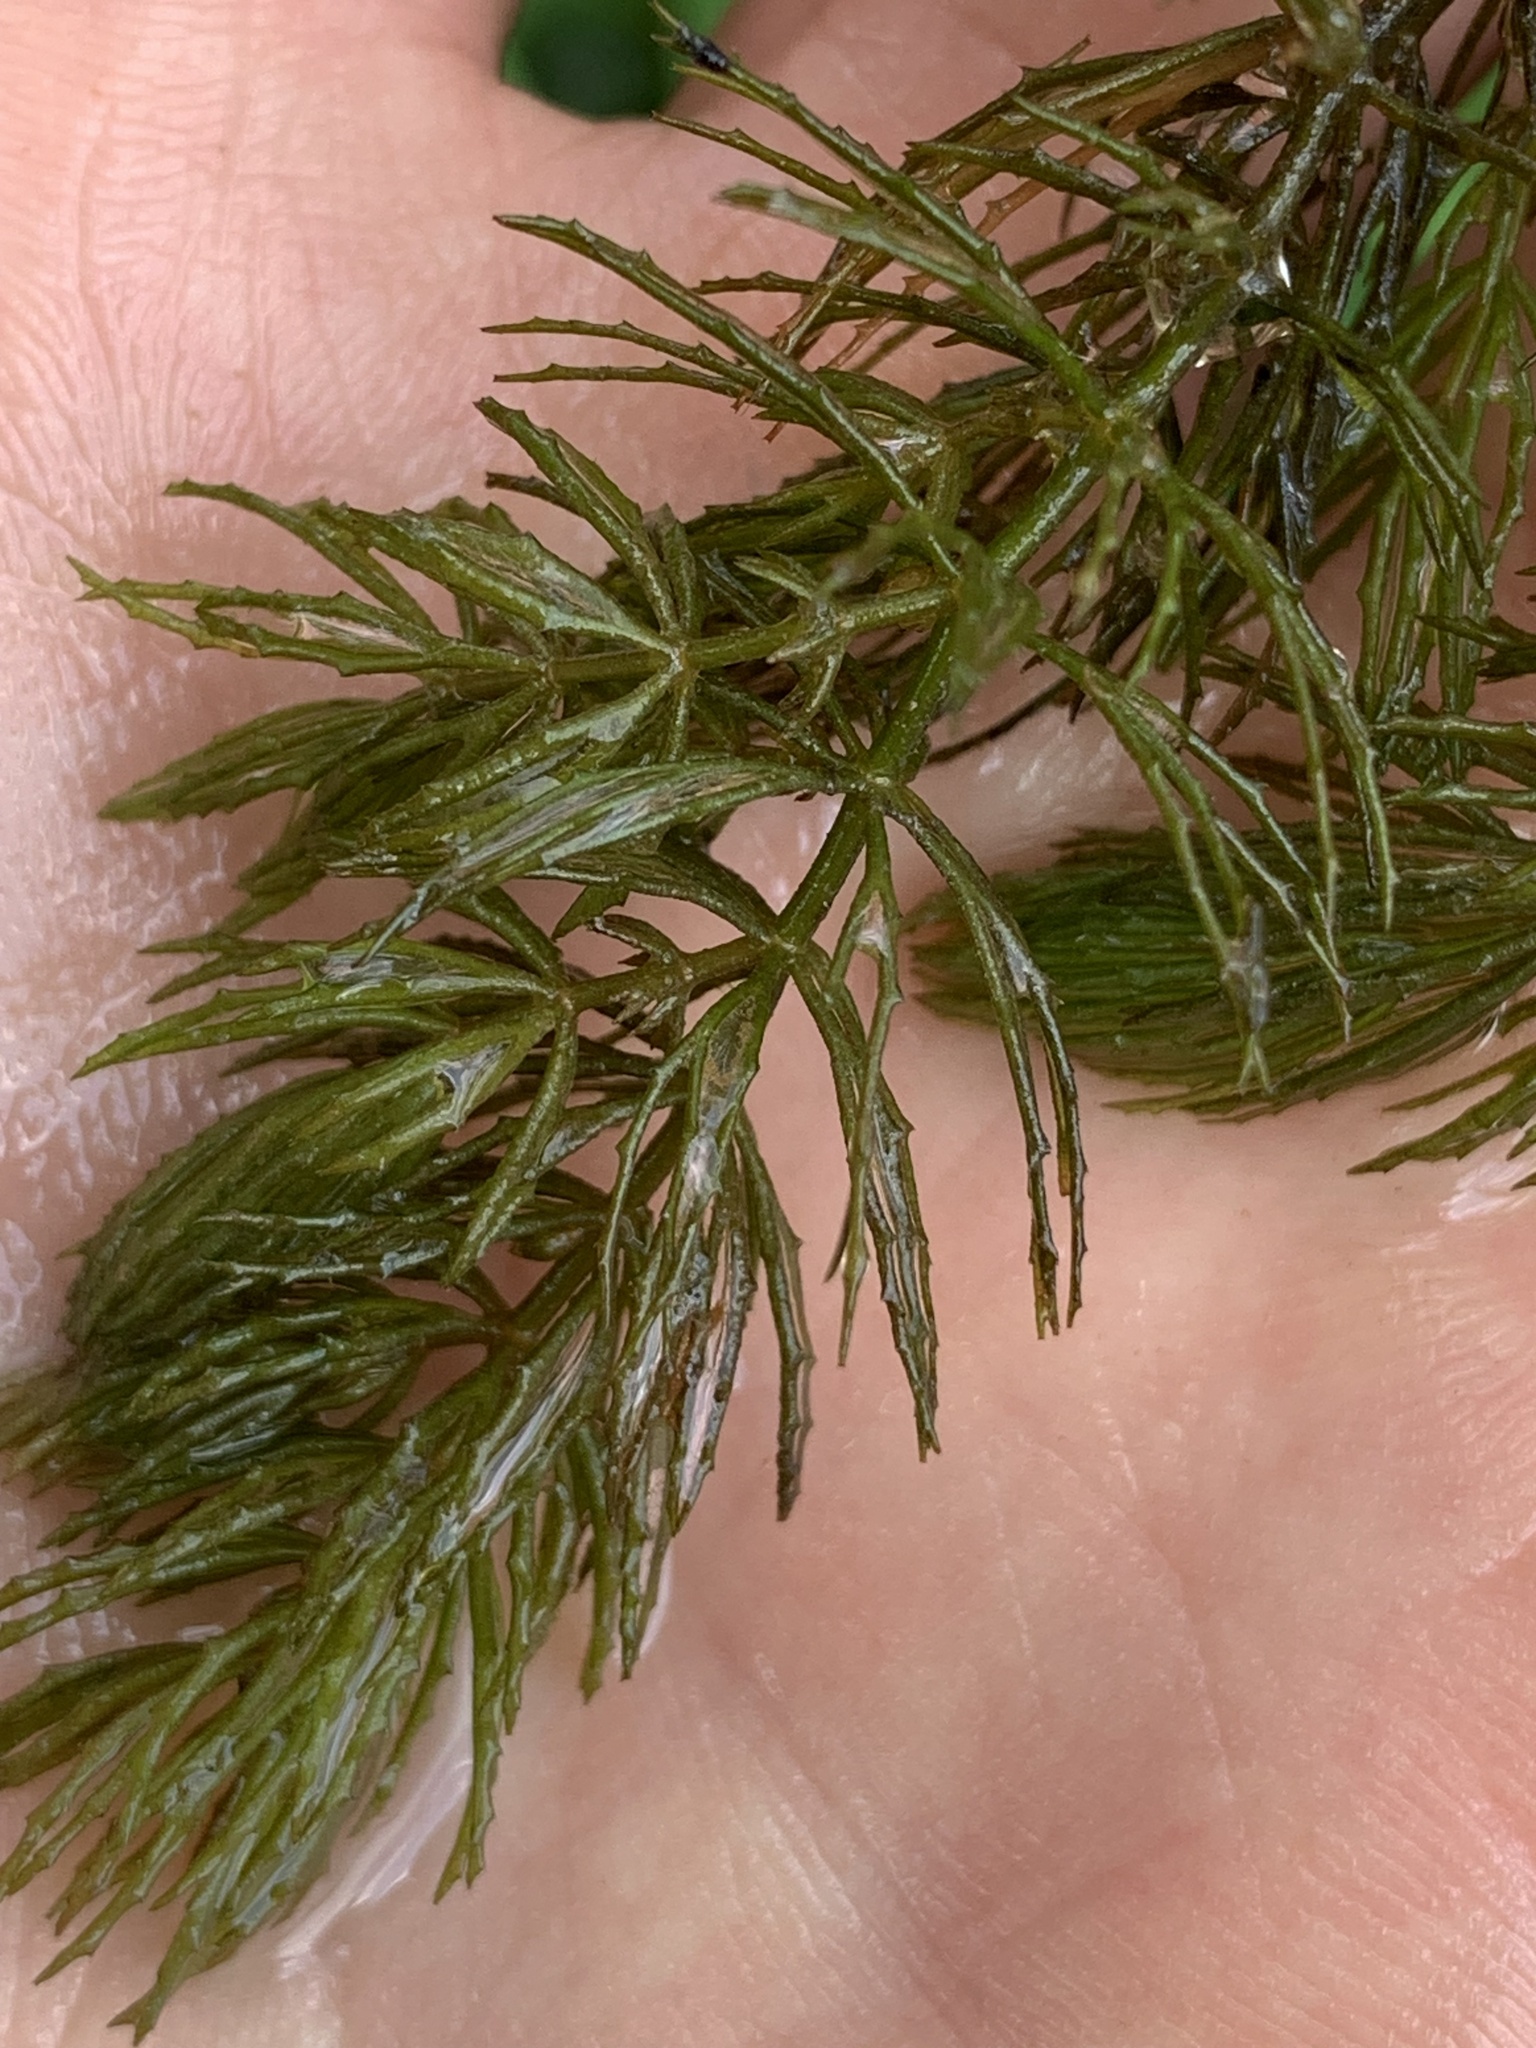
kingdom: Plantae
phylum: Tracheophyta
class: Magnoliopsida
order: Ceratophyllales
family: Ceratophyllaceae
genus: Ceratophyllum
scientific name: Ceratophyllum demersum
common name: Rigid hornwort
